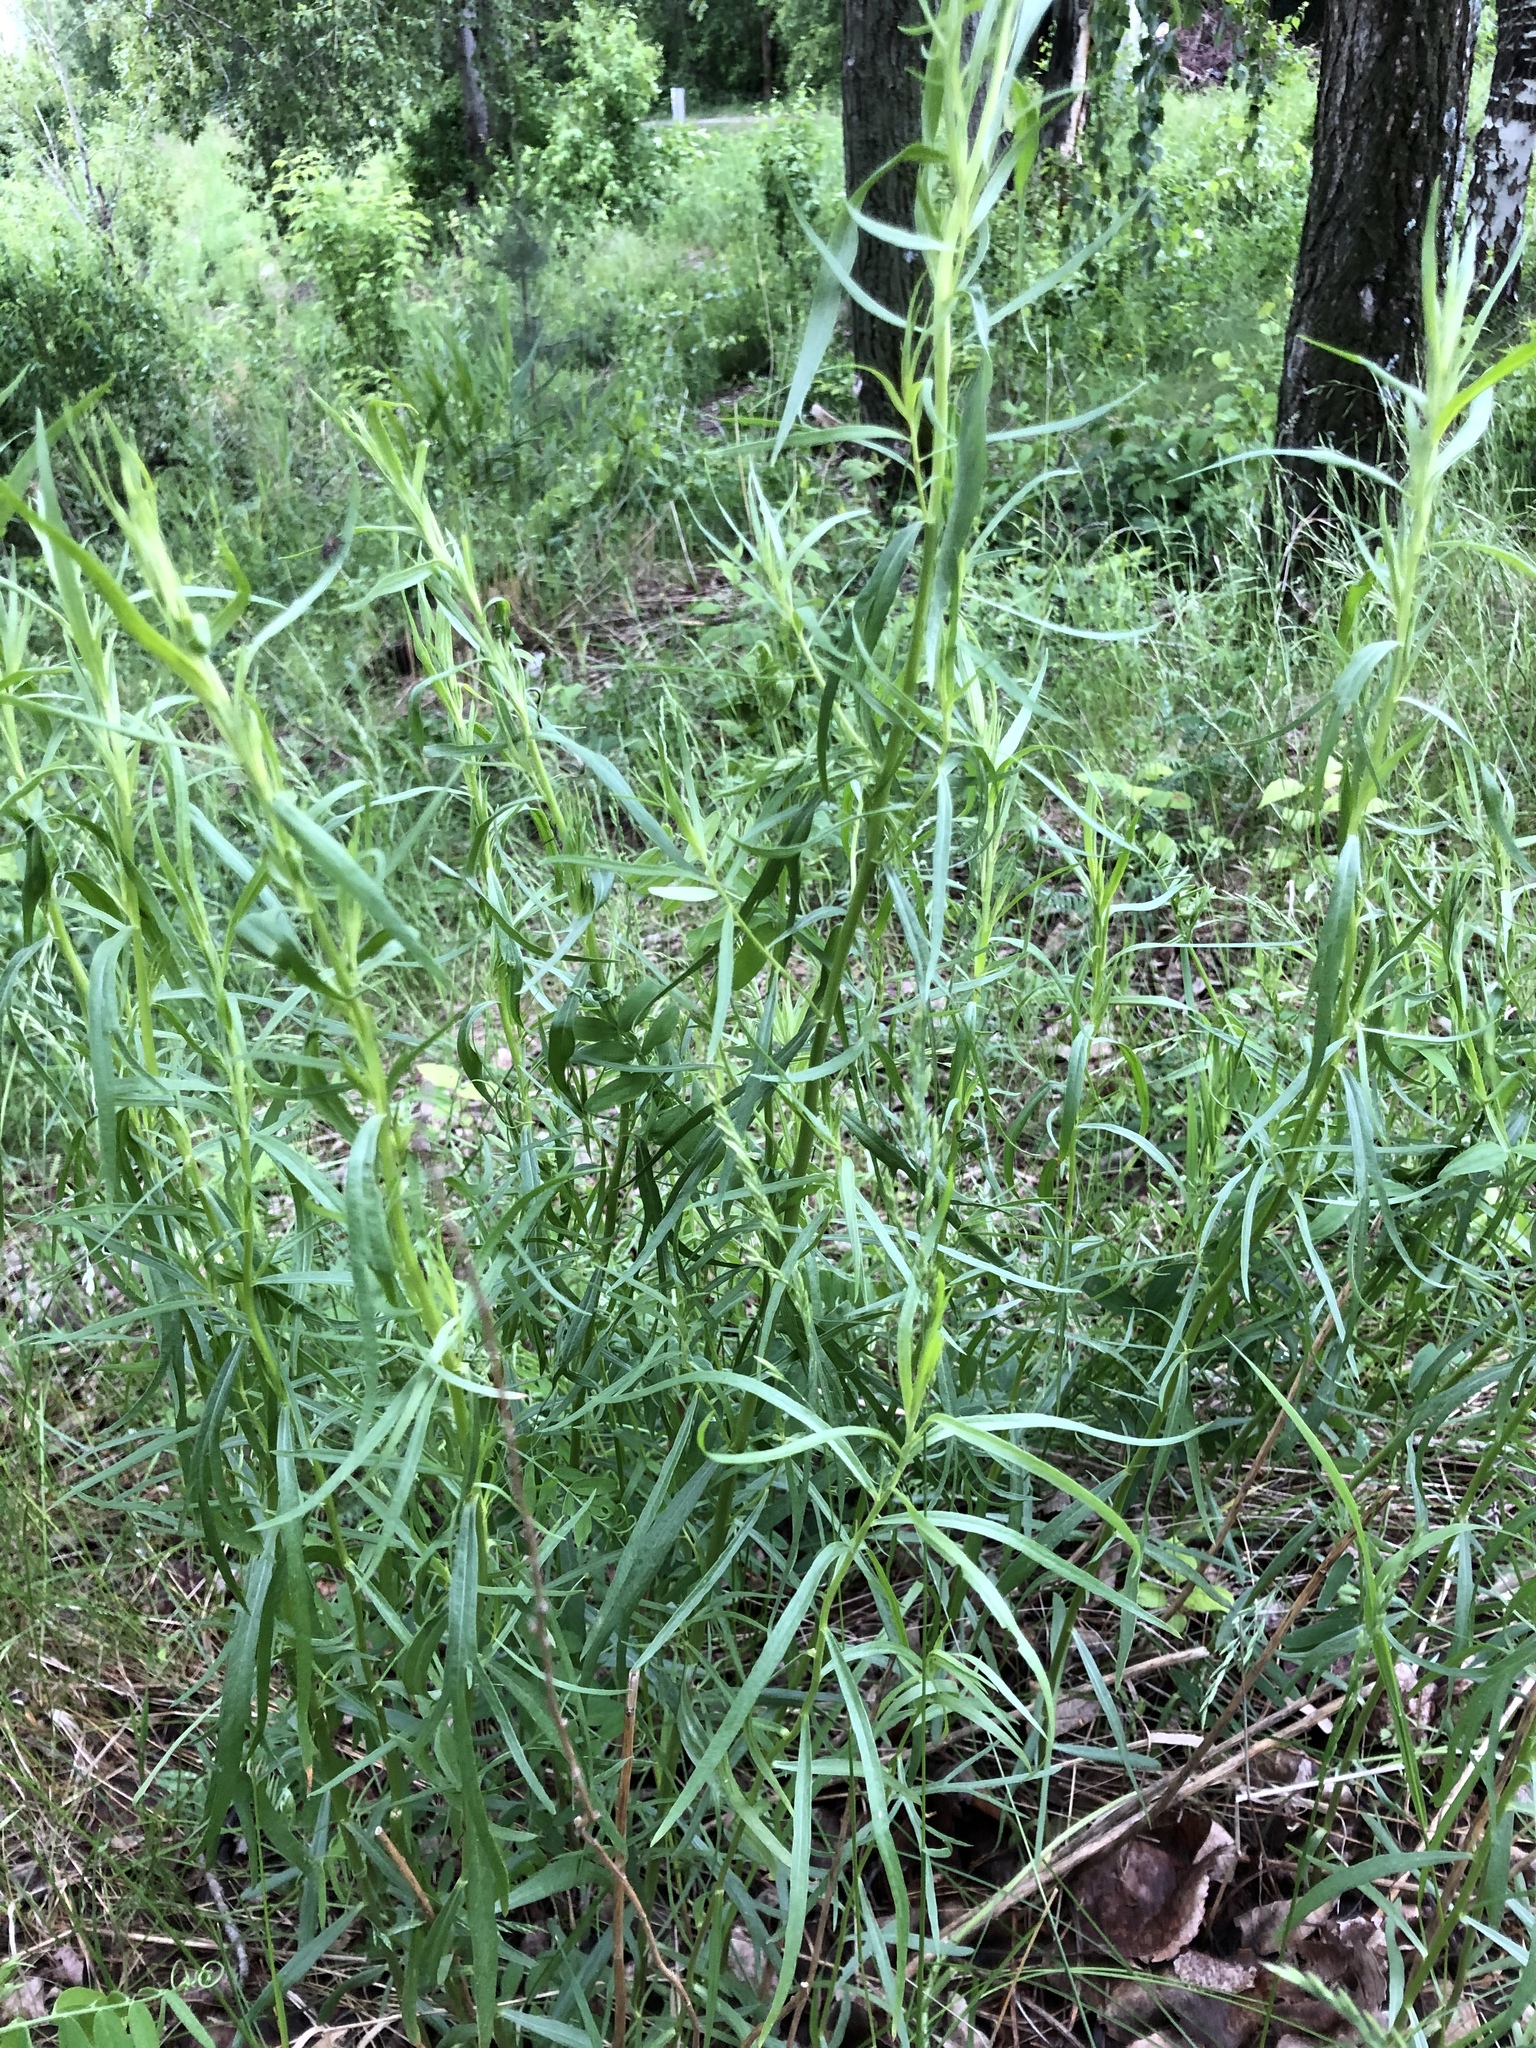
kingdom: Plantae
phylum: Tracheophyta
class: Magnoliopsida
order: Asterales
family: Asteraceae
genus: Artemisia
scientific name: Artemisia dracunculus
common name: Tarragon
